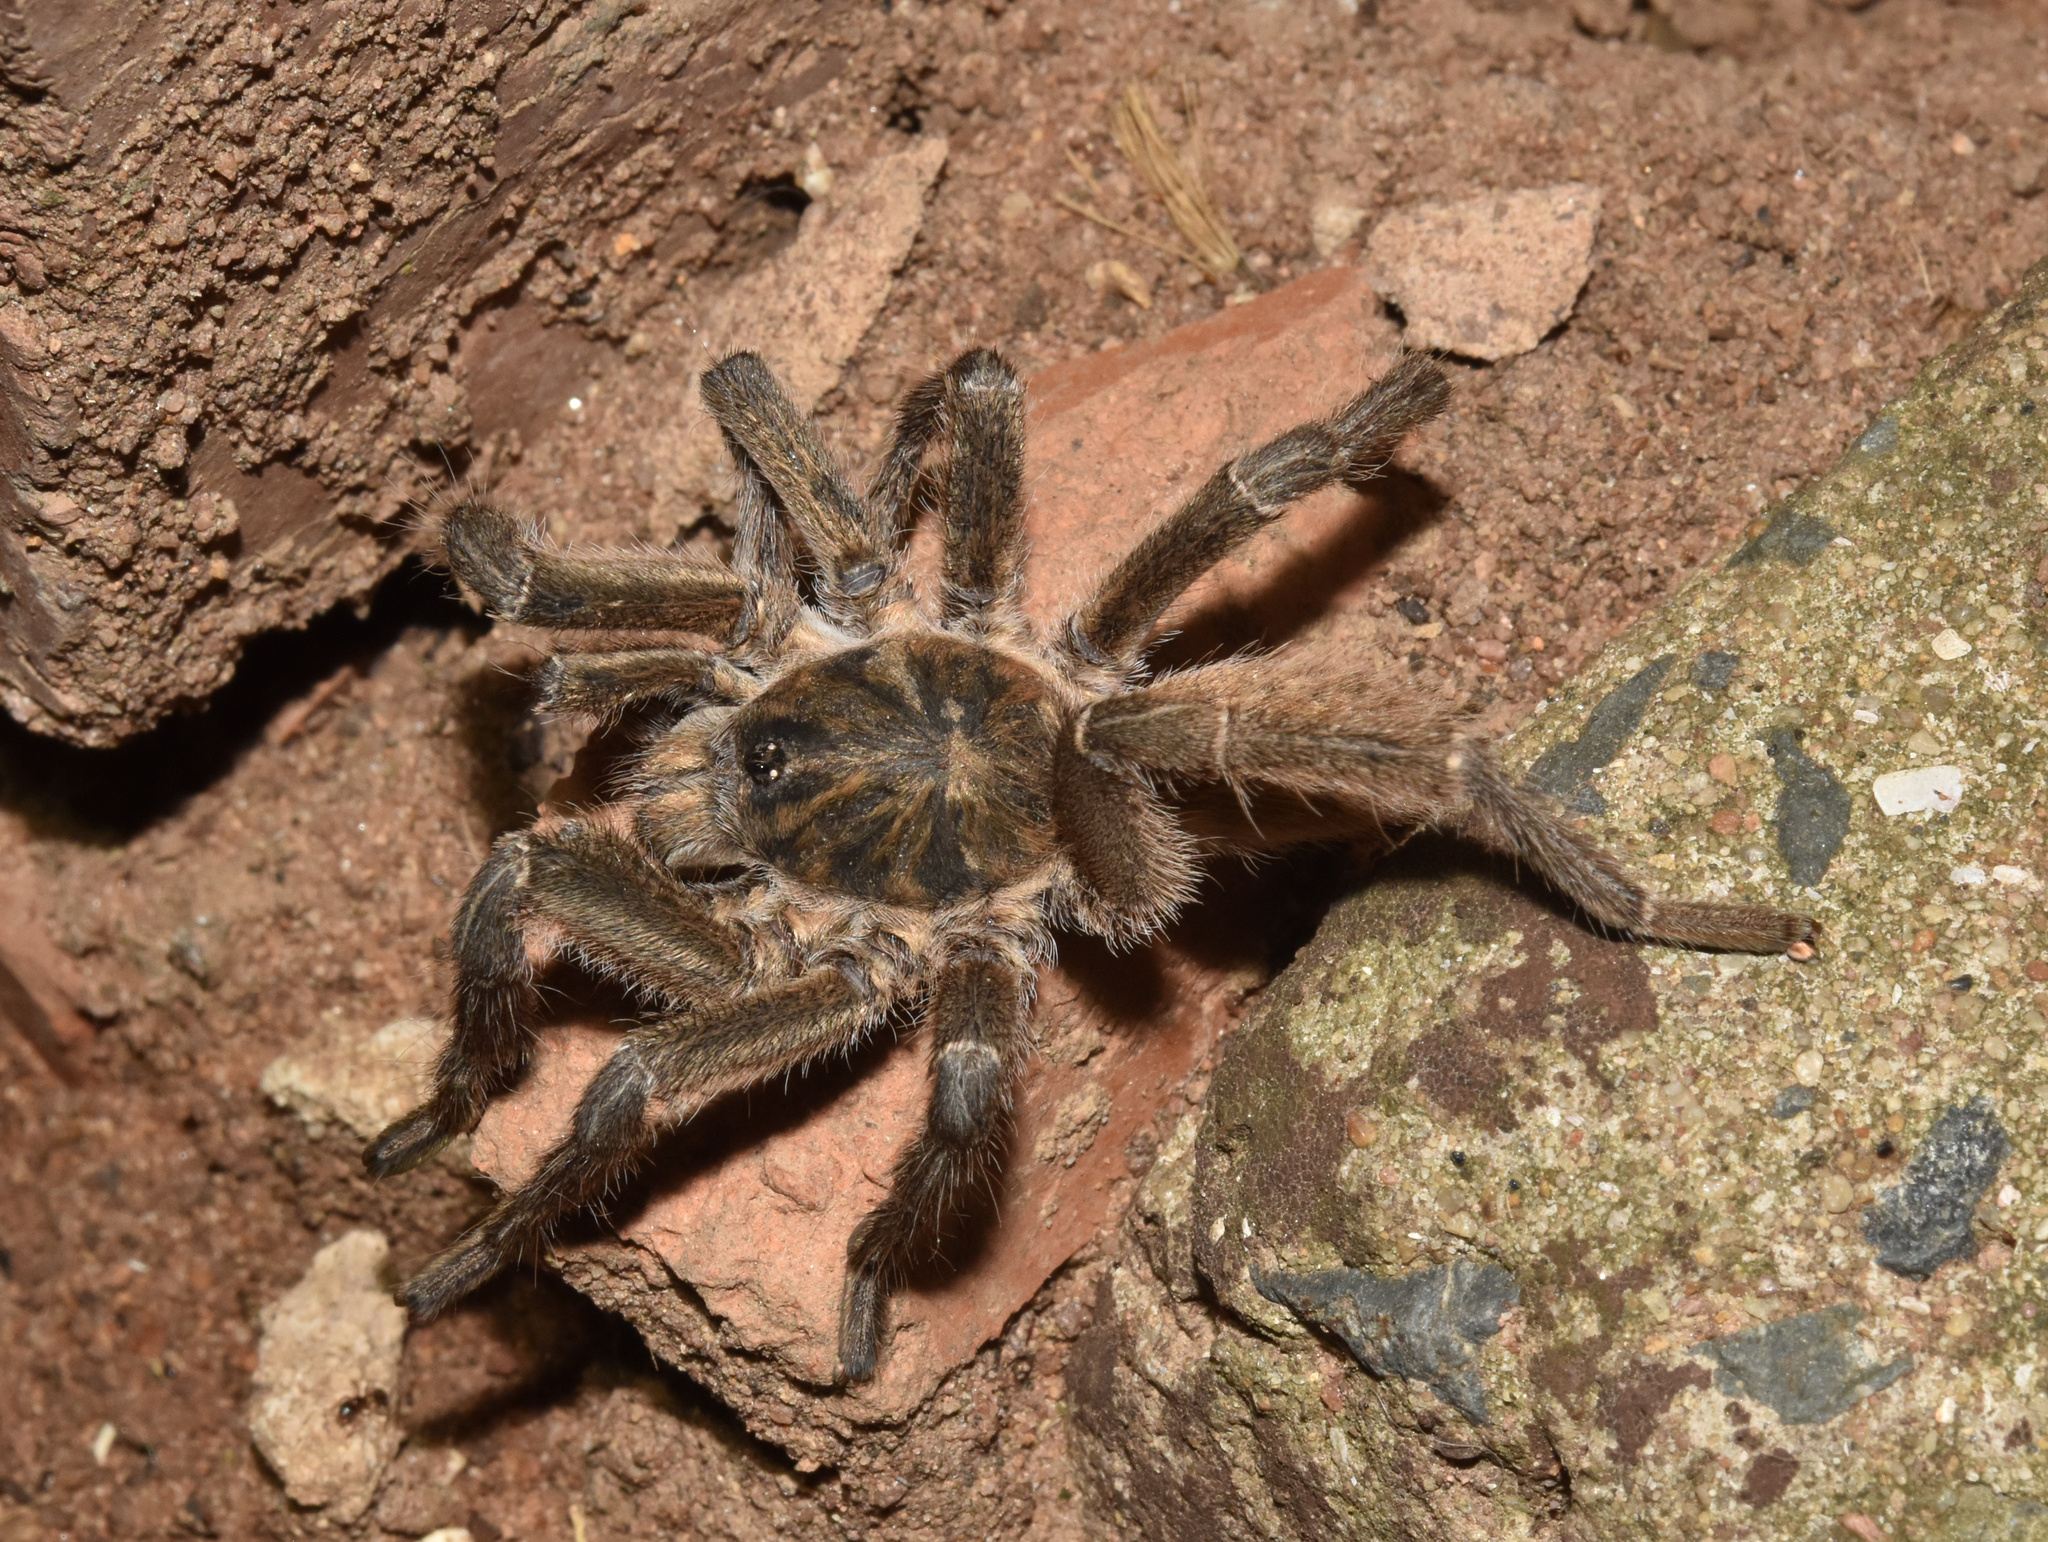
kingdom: Animalia
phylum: Arthropoda
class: Arachnida
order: Araneae
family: Theraphosidae
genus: Harpactira
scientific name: Harpactira curator
